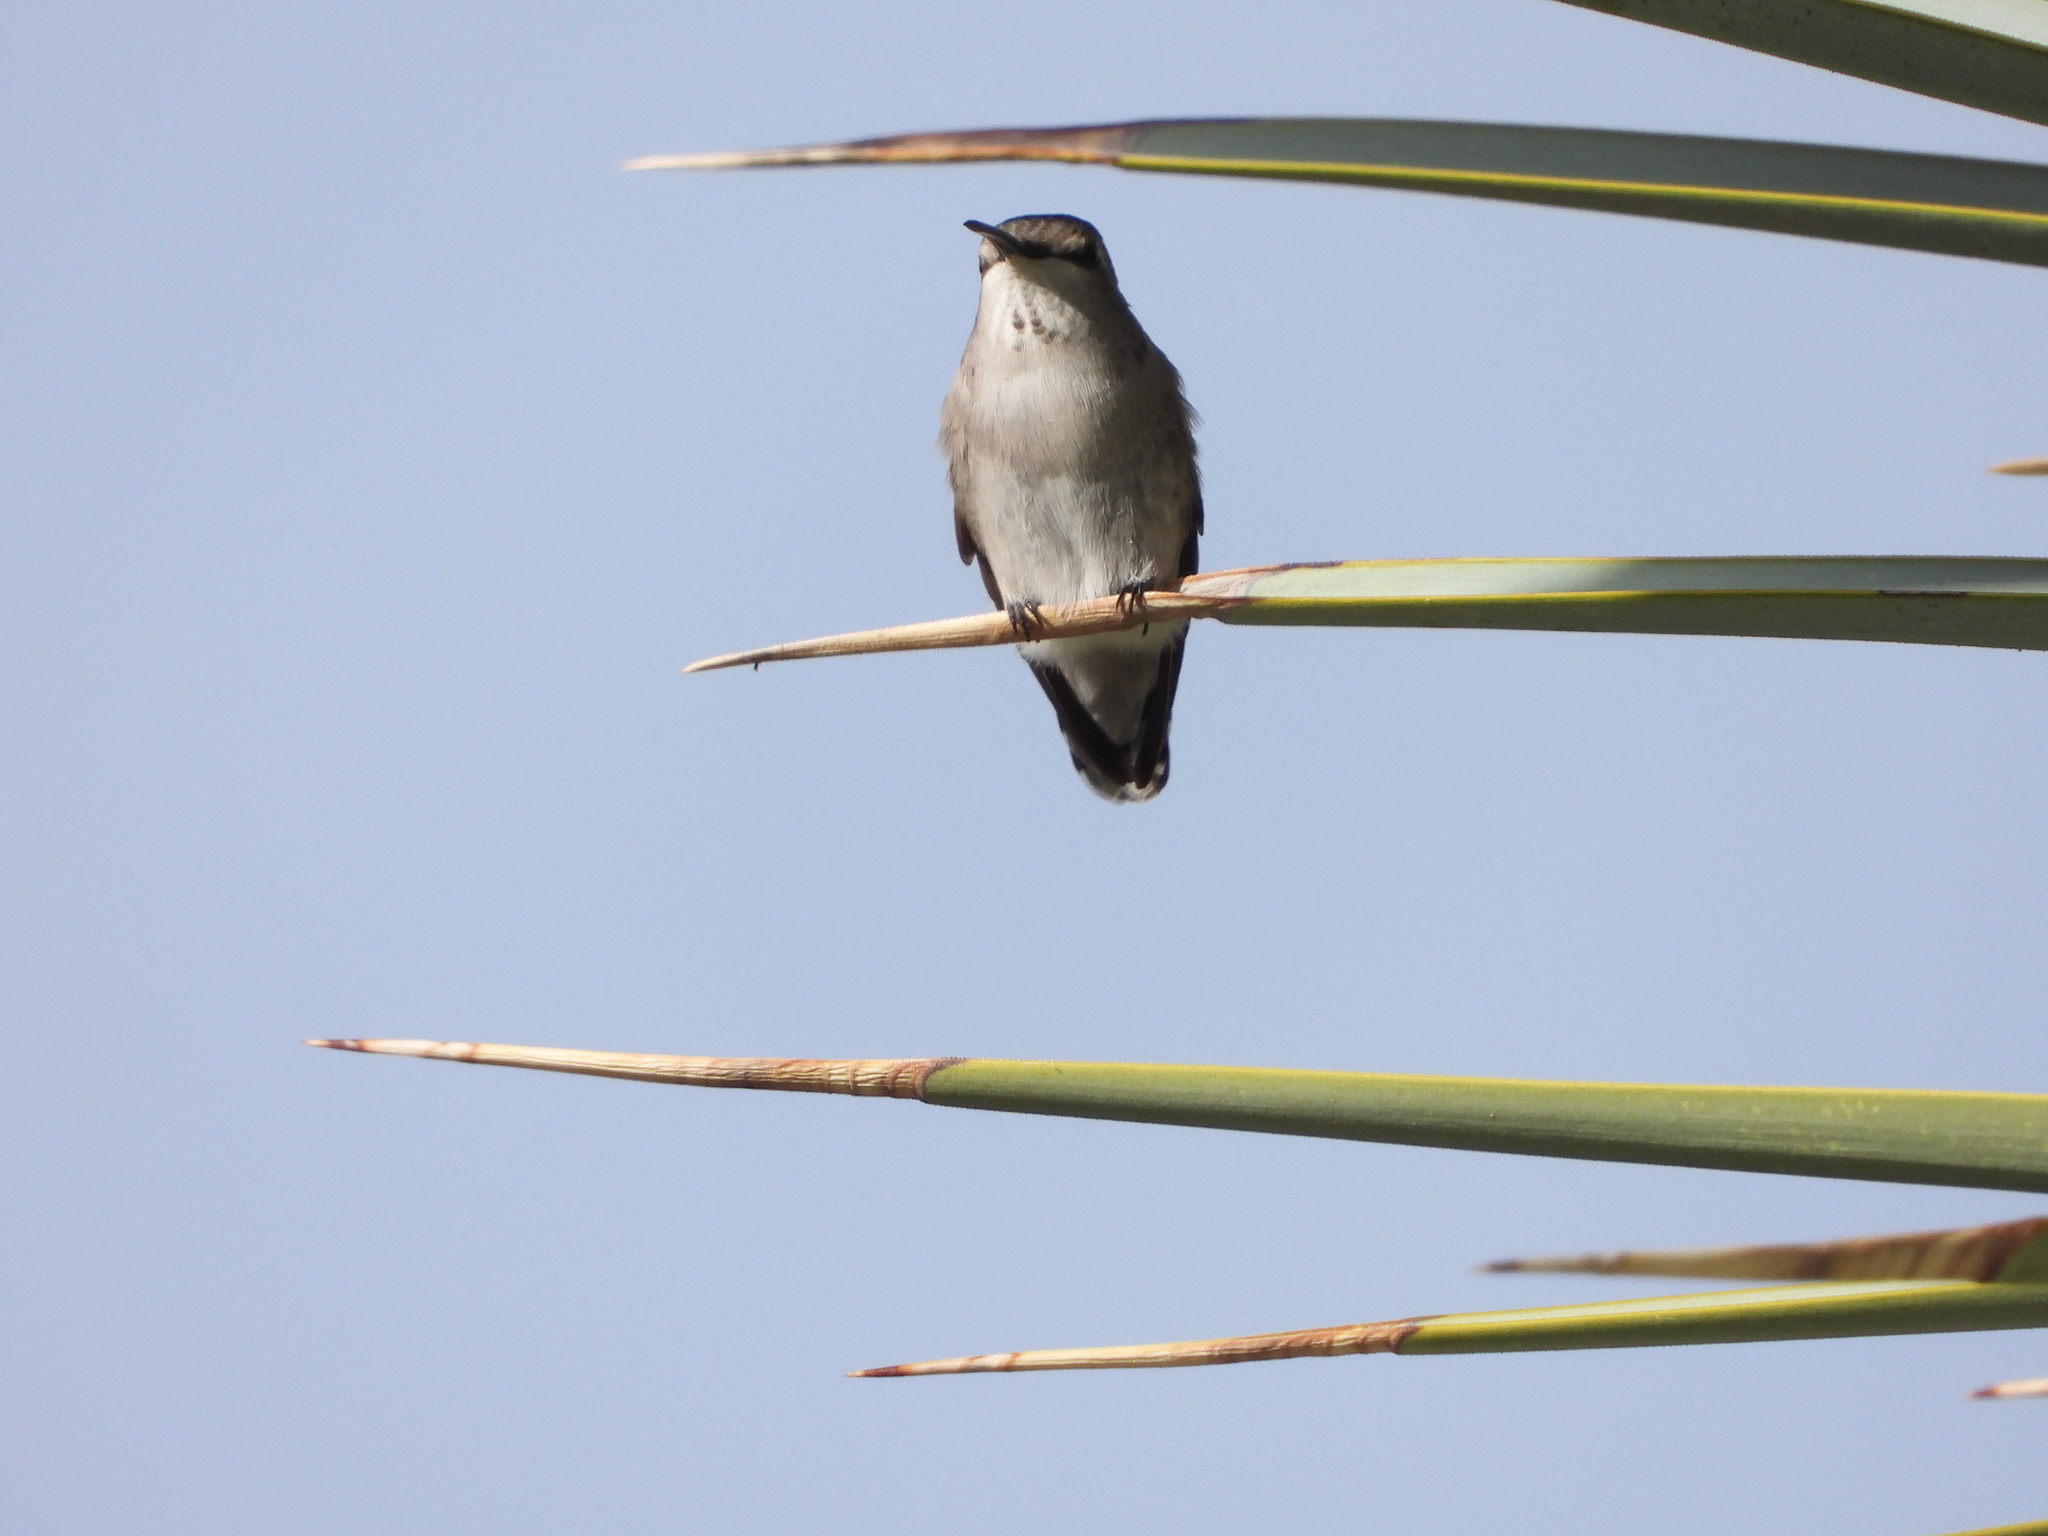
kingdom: Animalia
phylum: Chordata
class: Aves
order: Apodiformes
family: Trochilidae
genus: Calypte
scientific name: Calypte costae
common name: Costa's hummingbird
